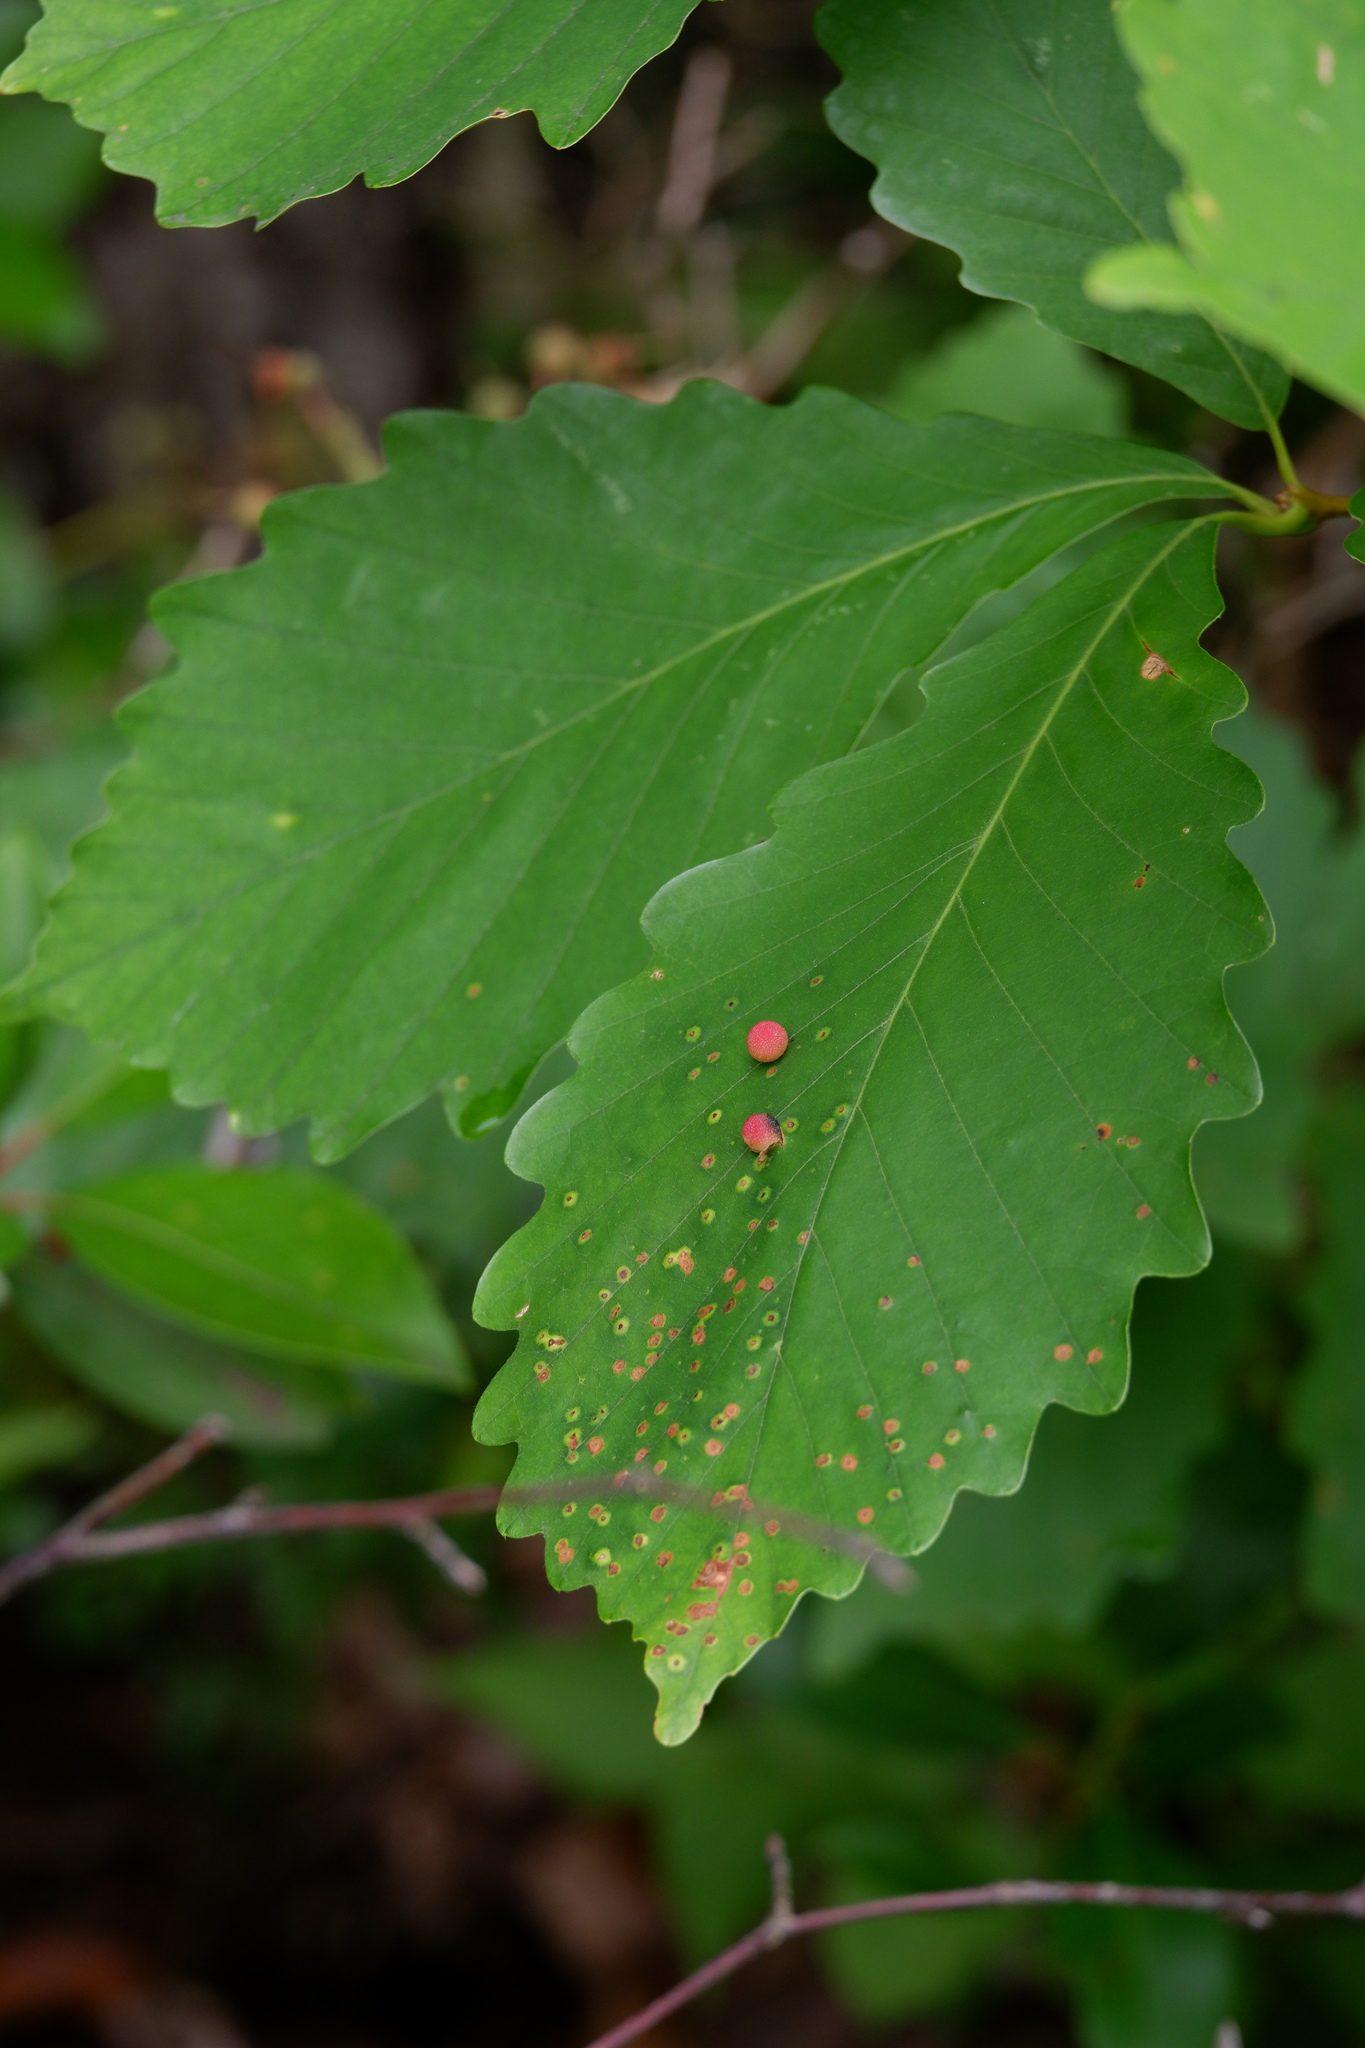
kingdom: Animalia
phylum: Arthropoda
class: Insecta
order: Hymenoptera
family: Cynipidae
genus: Acraspis
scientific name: Acraspis quercushirta
